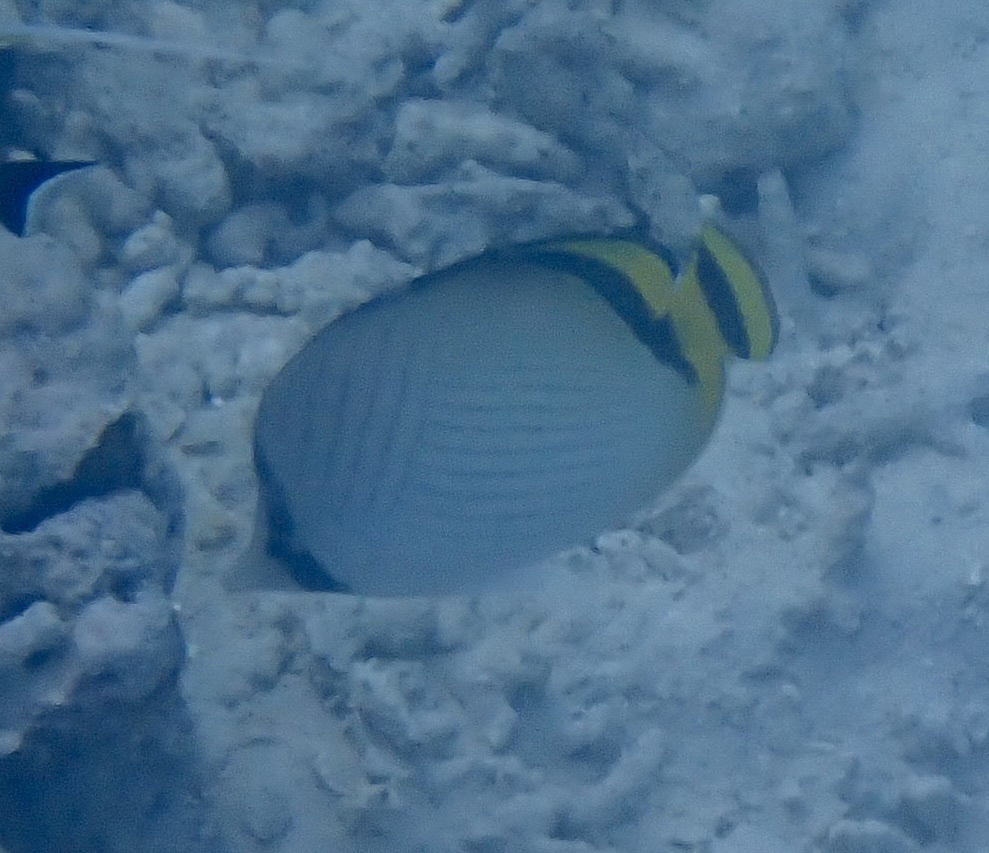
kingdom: Animalia
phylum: Chordata
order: Perciformes
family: Chaetodontidae
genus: Chaetodon
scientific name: Chaetodon vagabundus
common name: Vagabond butterflyfish
